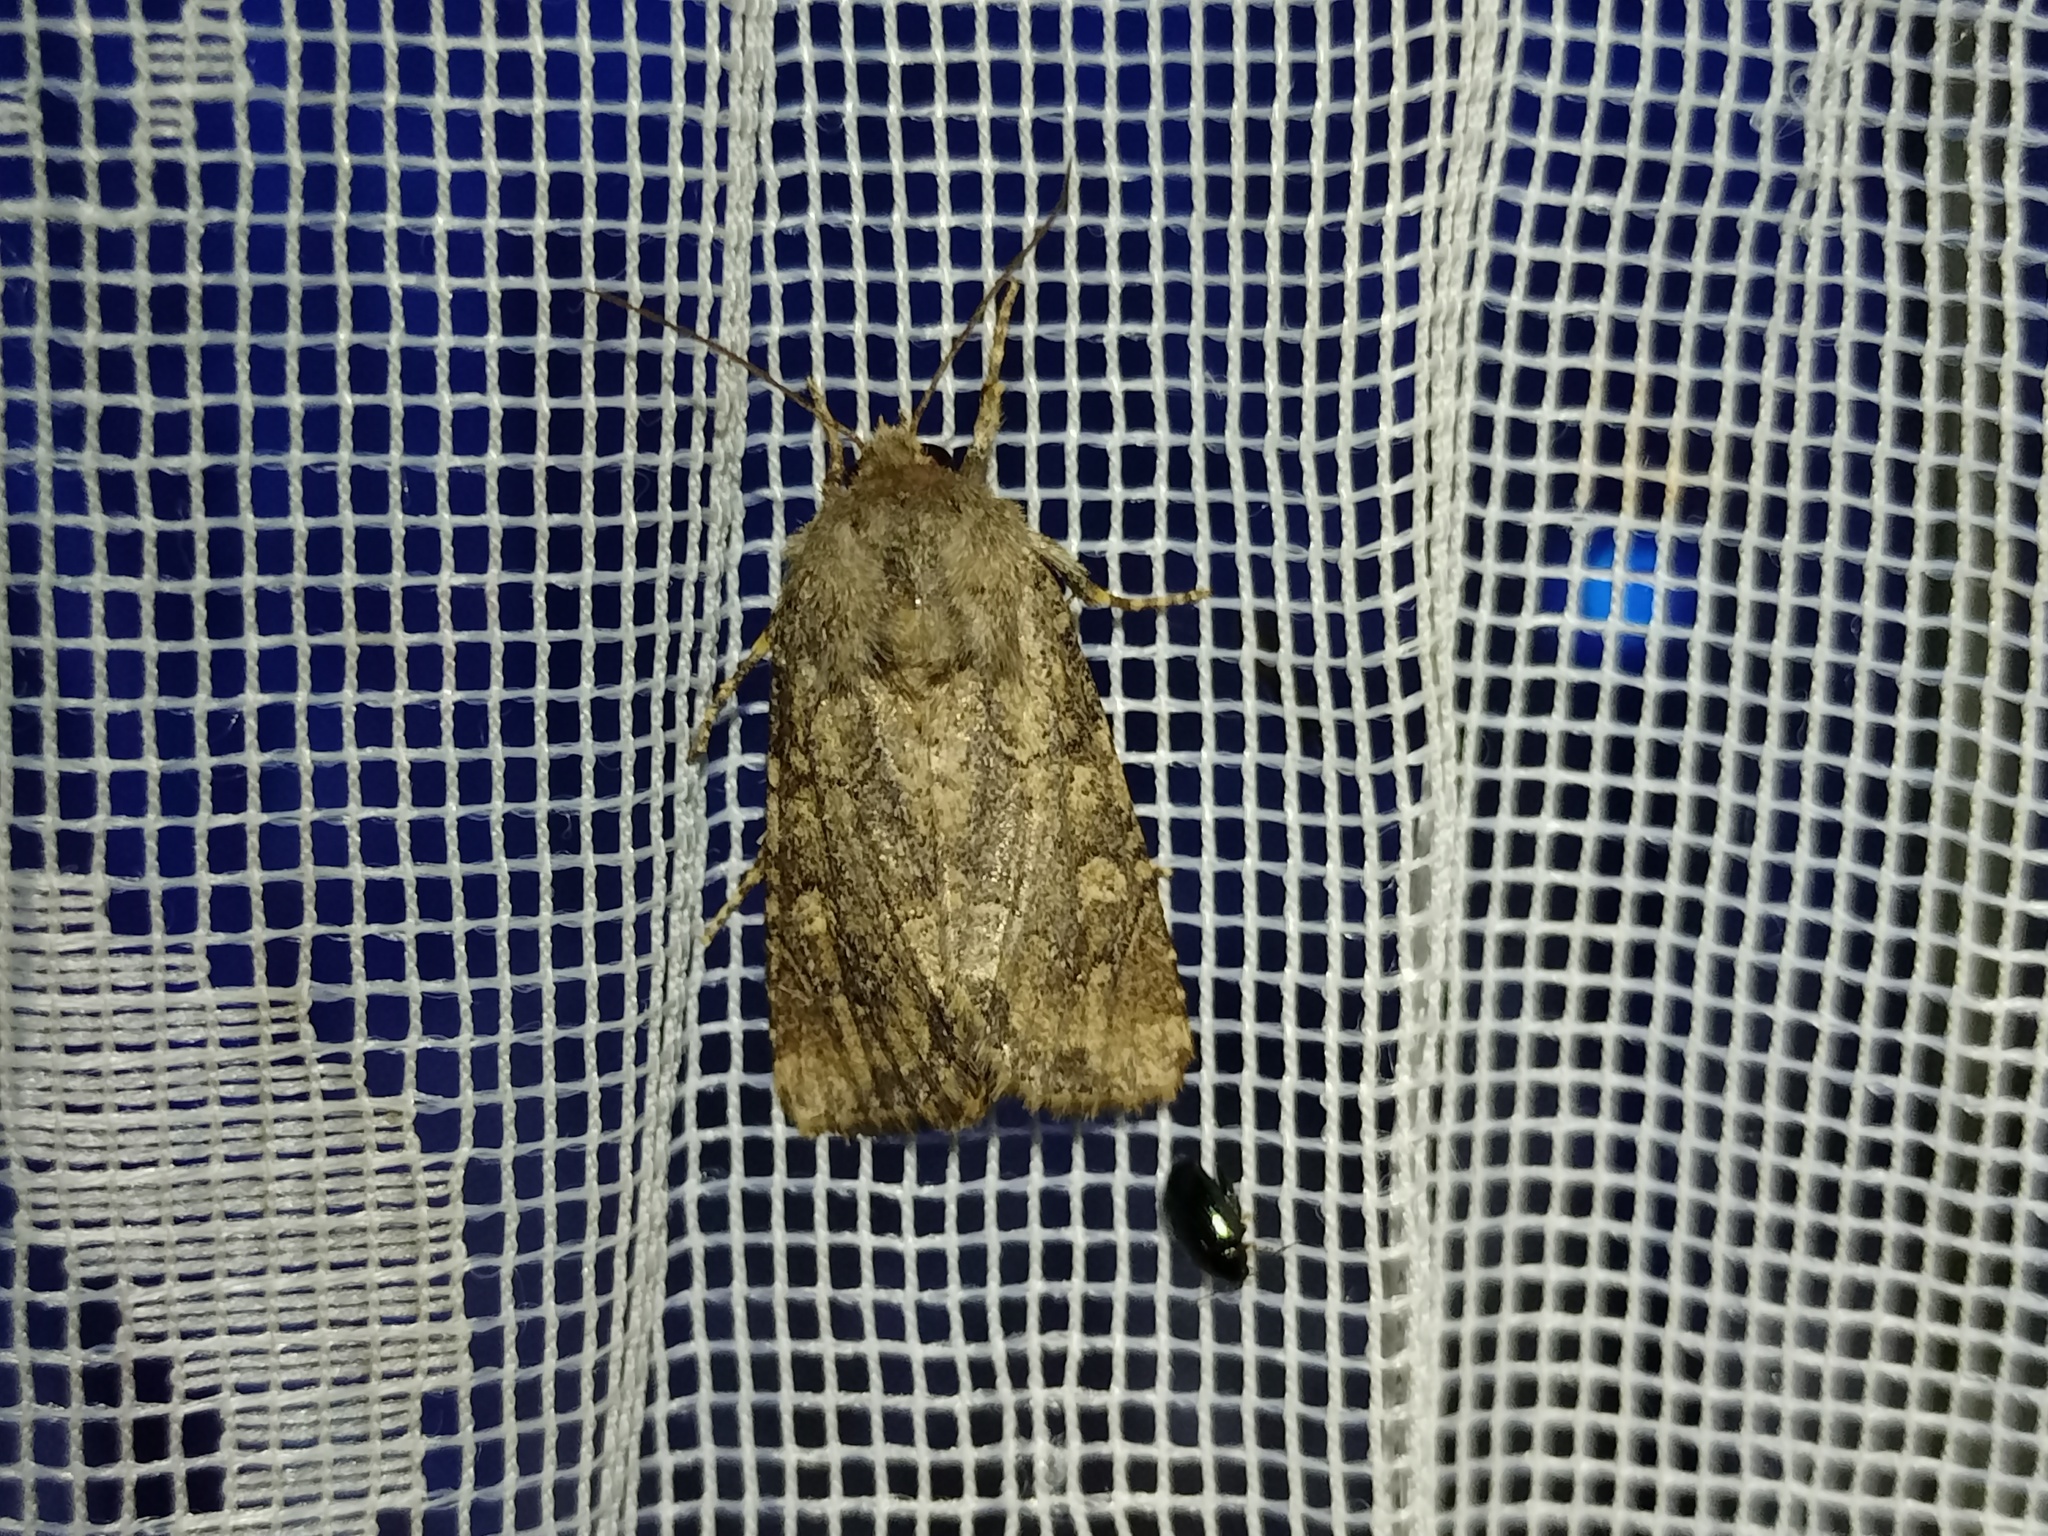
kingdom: Animalia
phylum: Arthropoda
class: Insecta
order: Lepidoptera
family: Noctuidae
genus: Luperina
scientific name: Luperina testacea
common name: Flounced rustic
